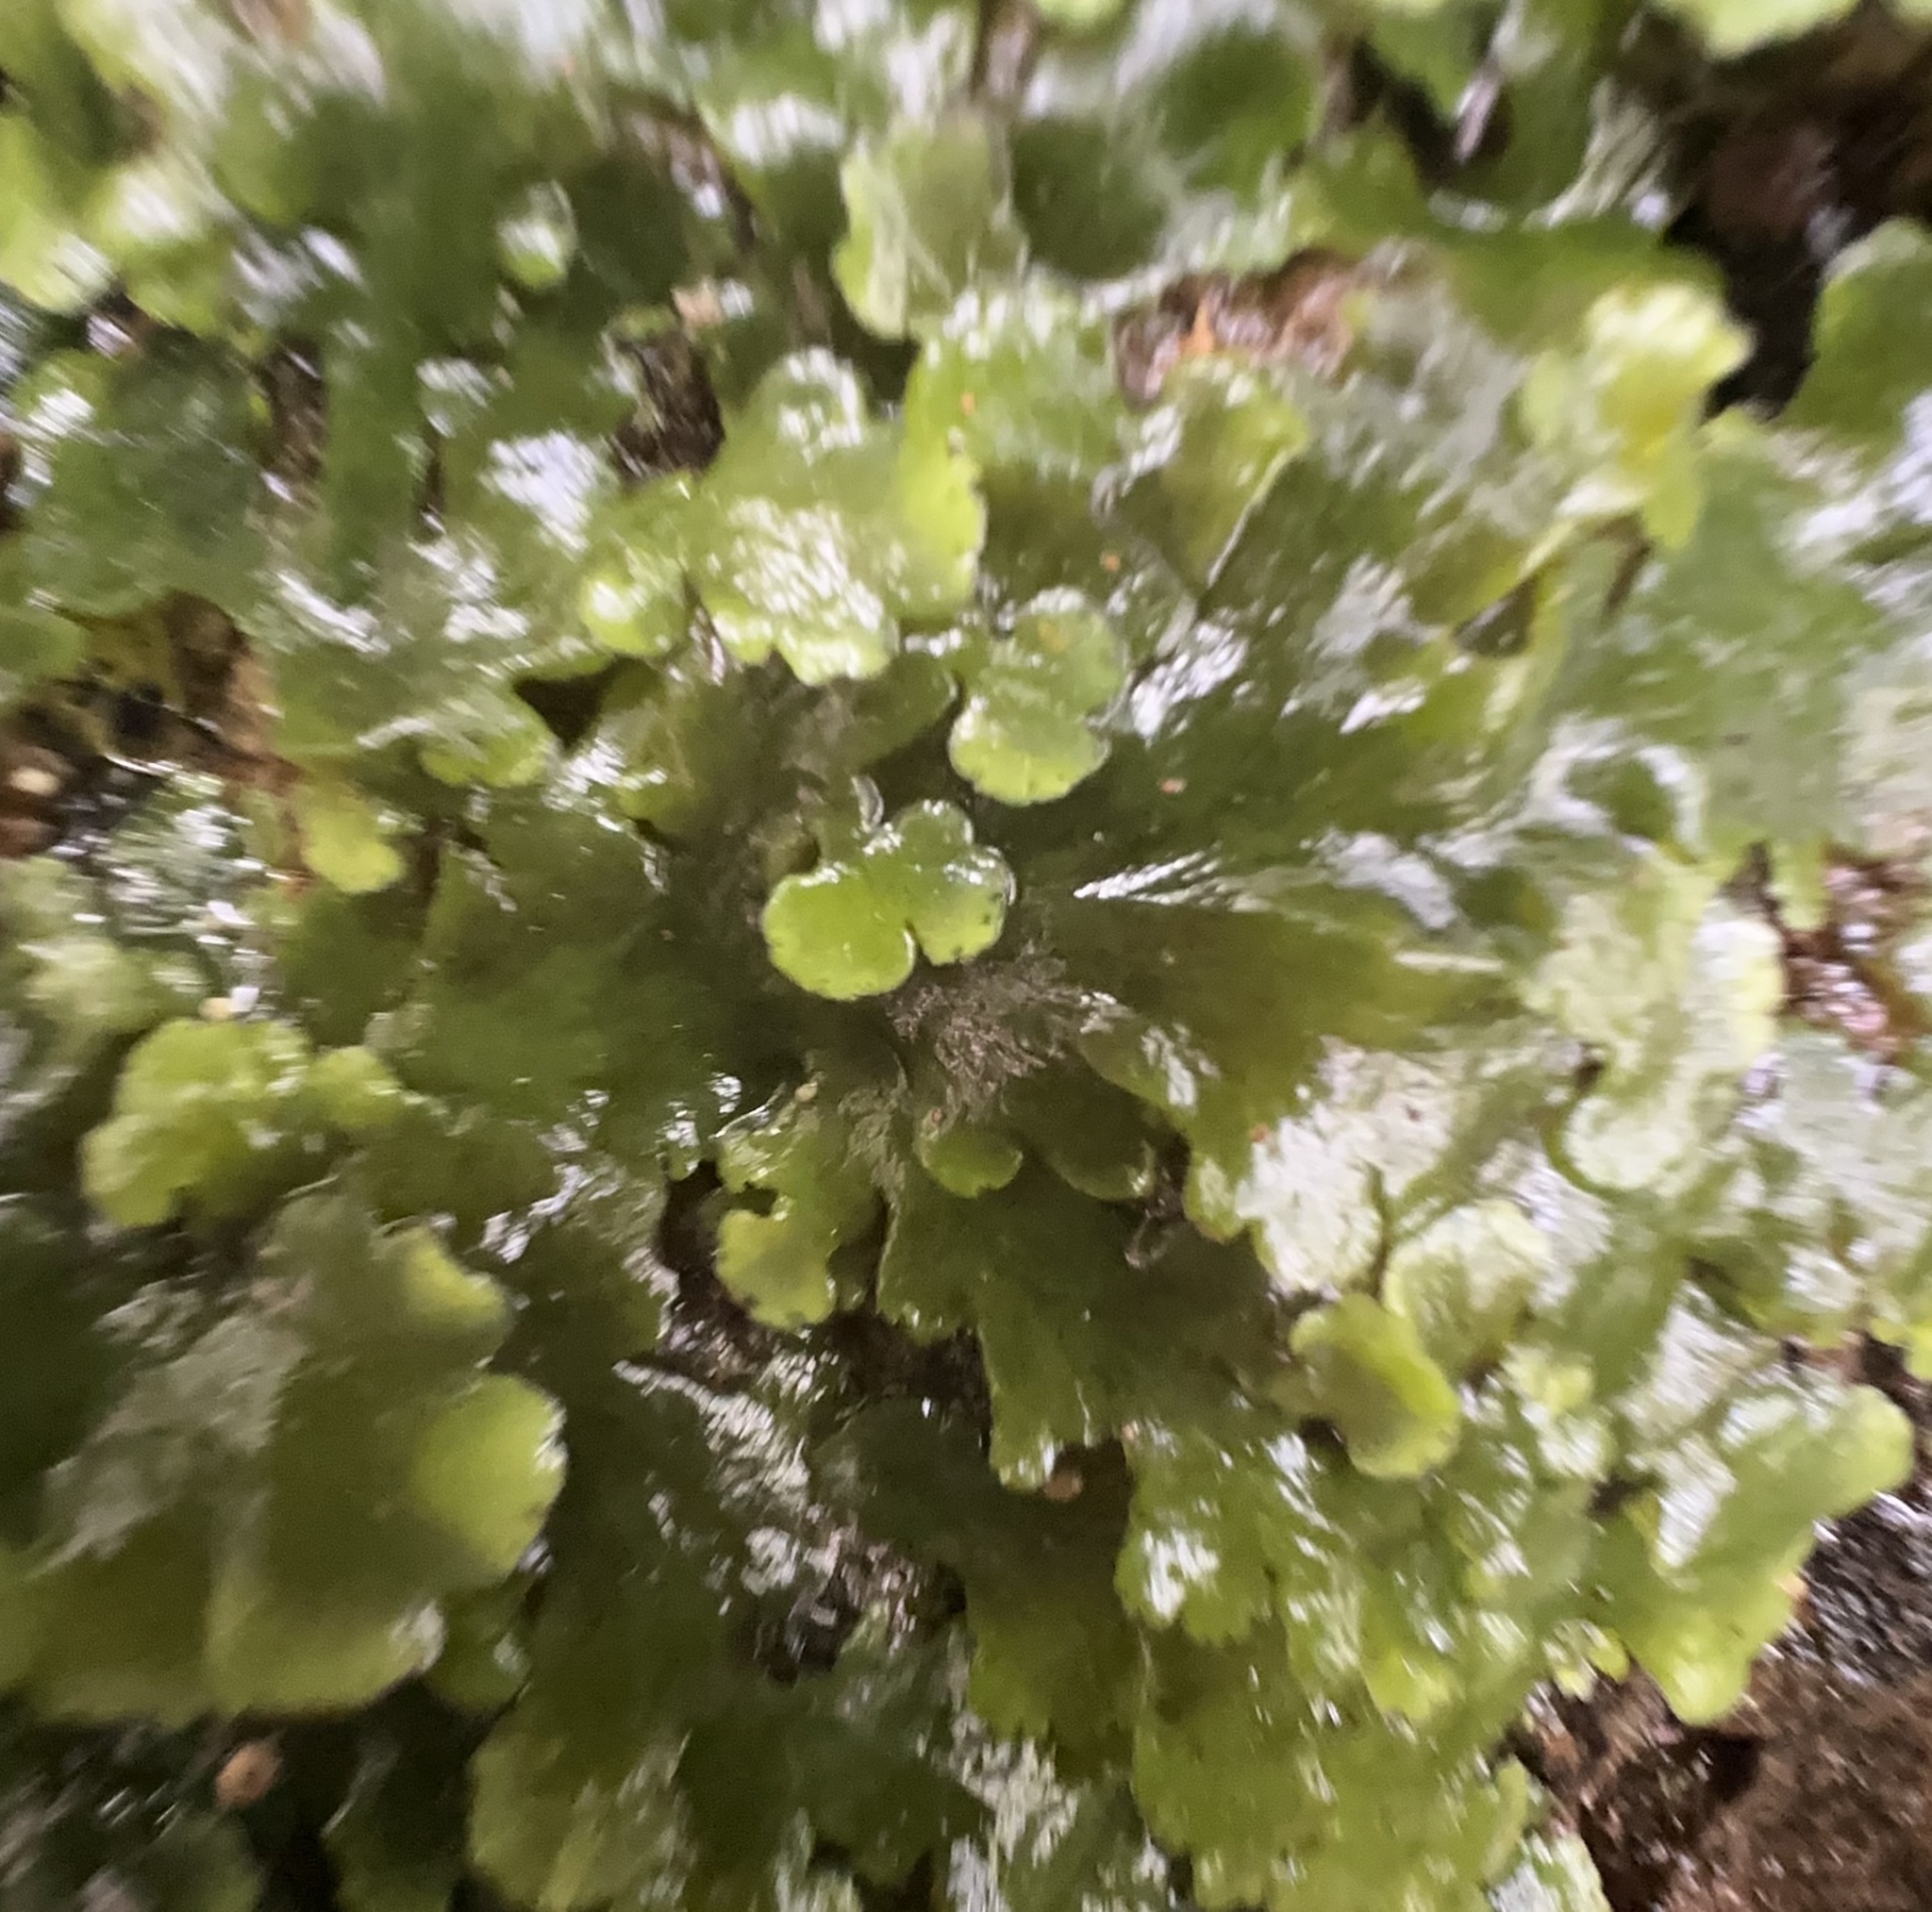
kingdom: Plantae
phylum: Marchantiophyta
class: Jungermanniopsida
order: Metzgeriales
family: Aneuraceae
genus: Lobatiriccardia
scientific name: Lobatiriccardia alterniloba
